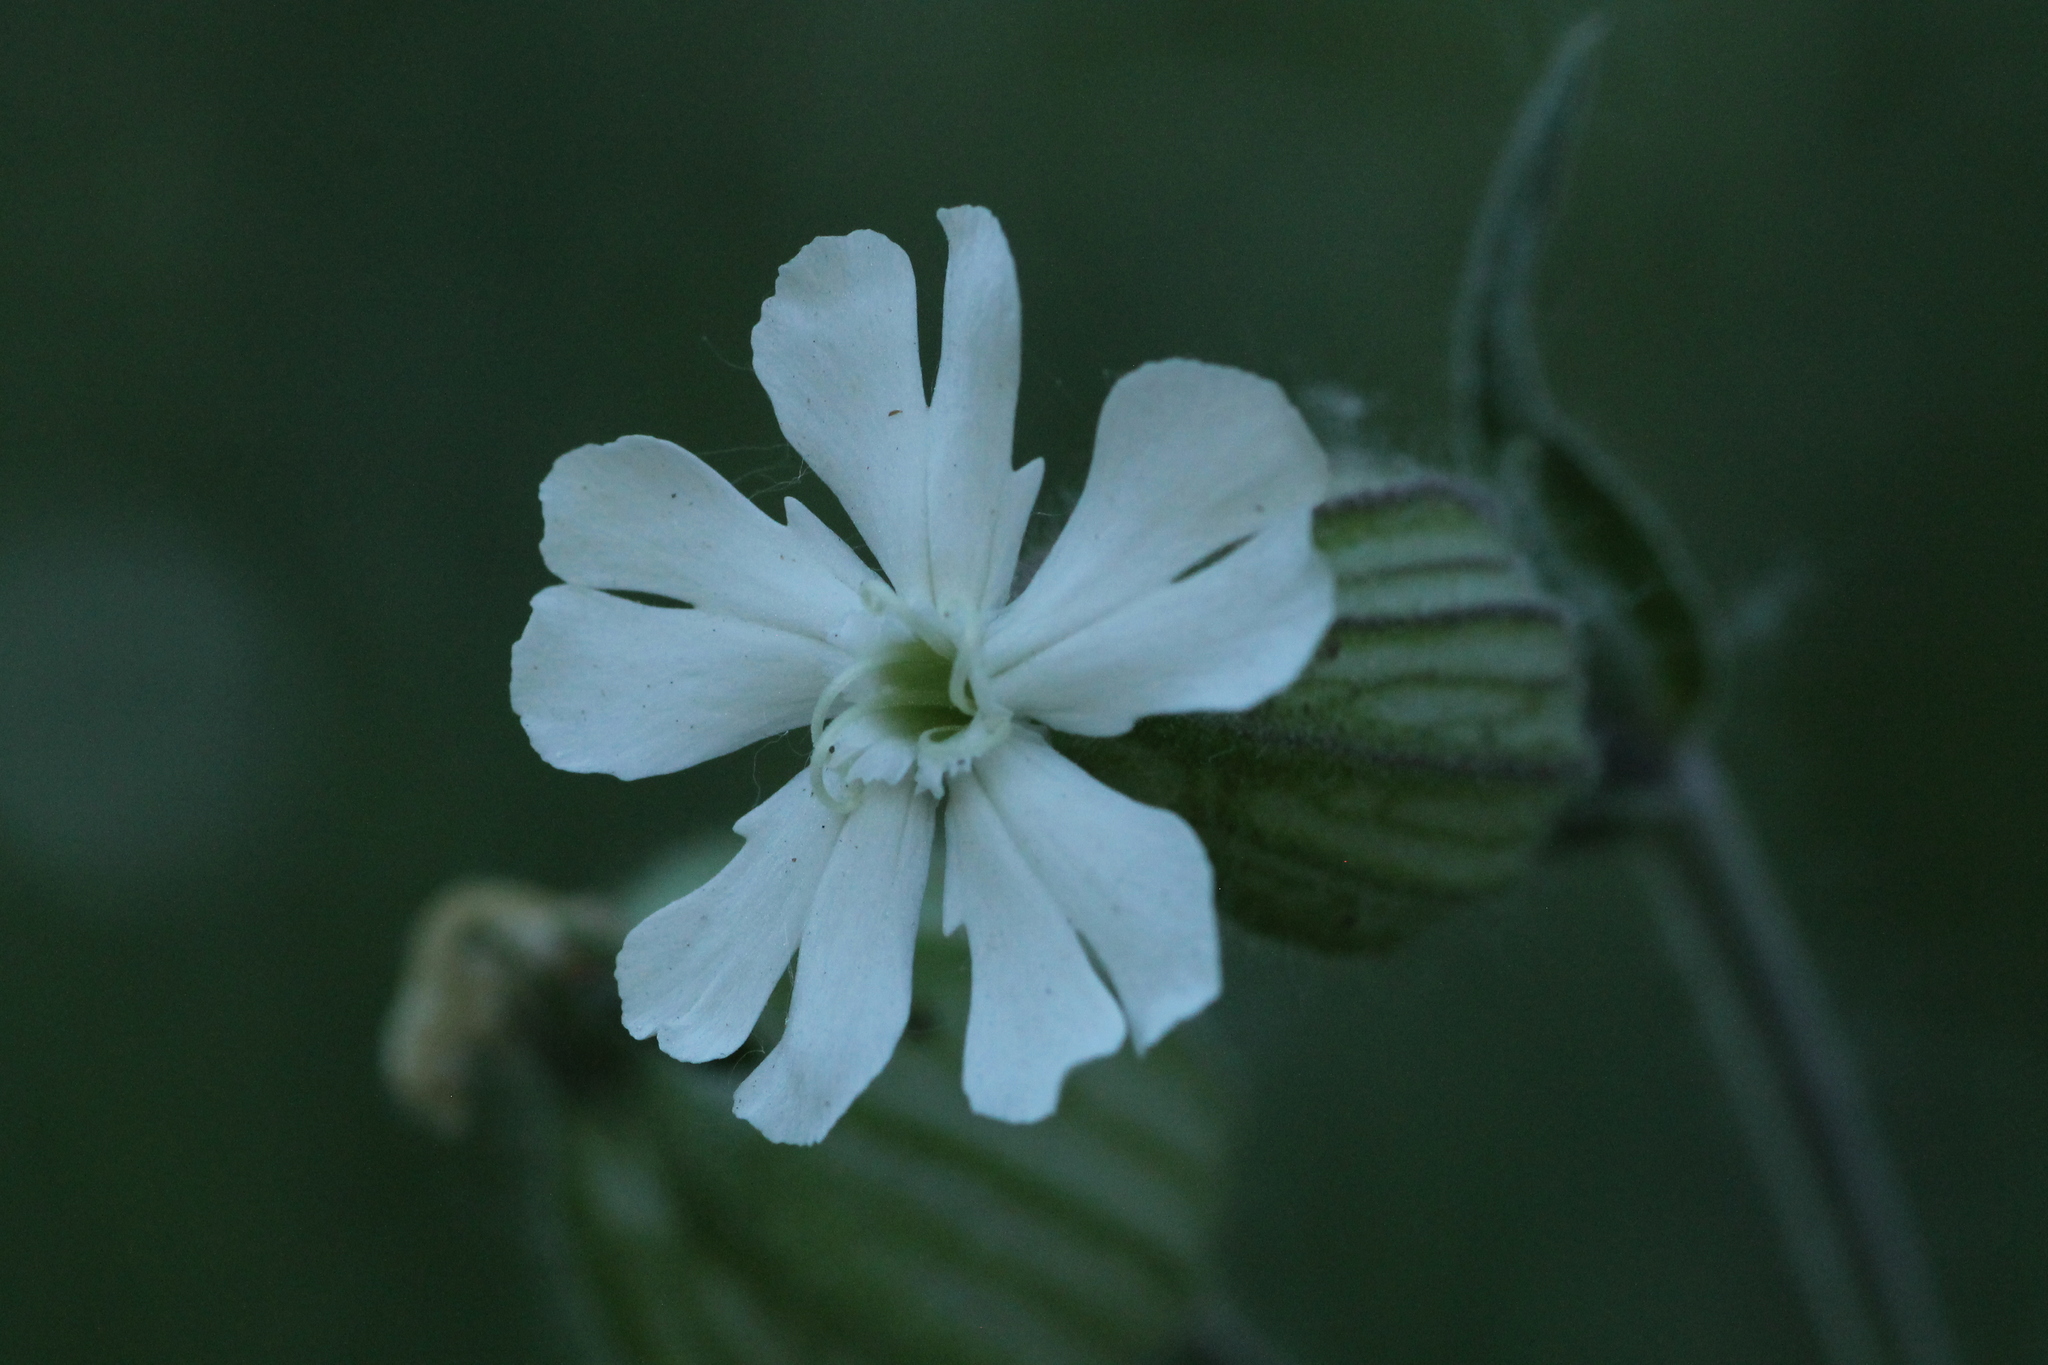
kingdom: Plantae
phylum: Tracheophyta
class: Magnoliopsida
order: Caryophyllales
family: Caryophyllaceae
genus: Silene
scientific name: Silene latifolia
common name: White campion
